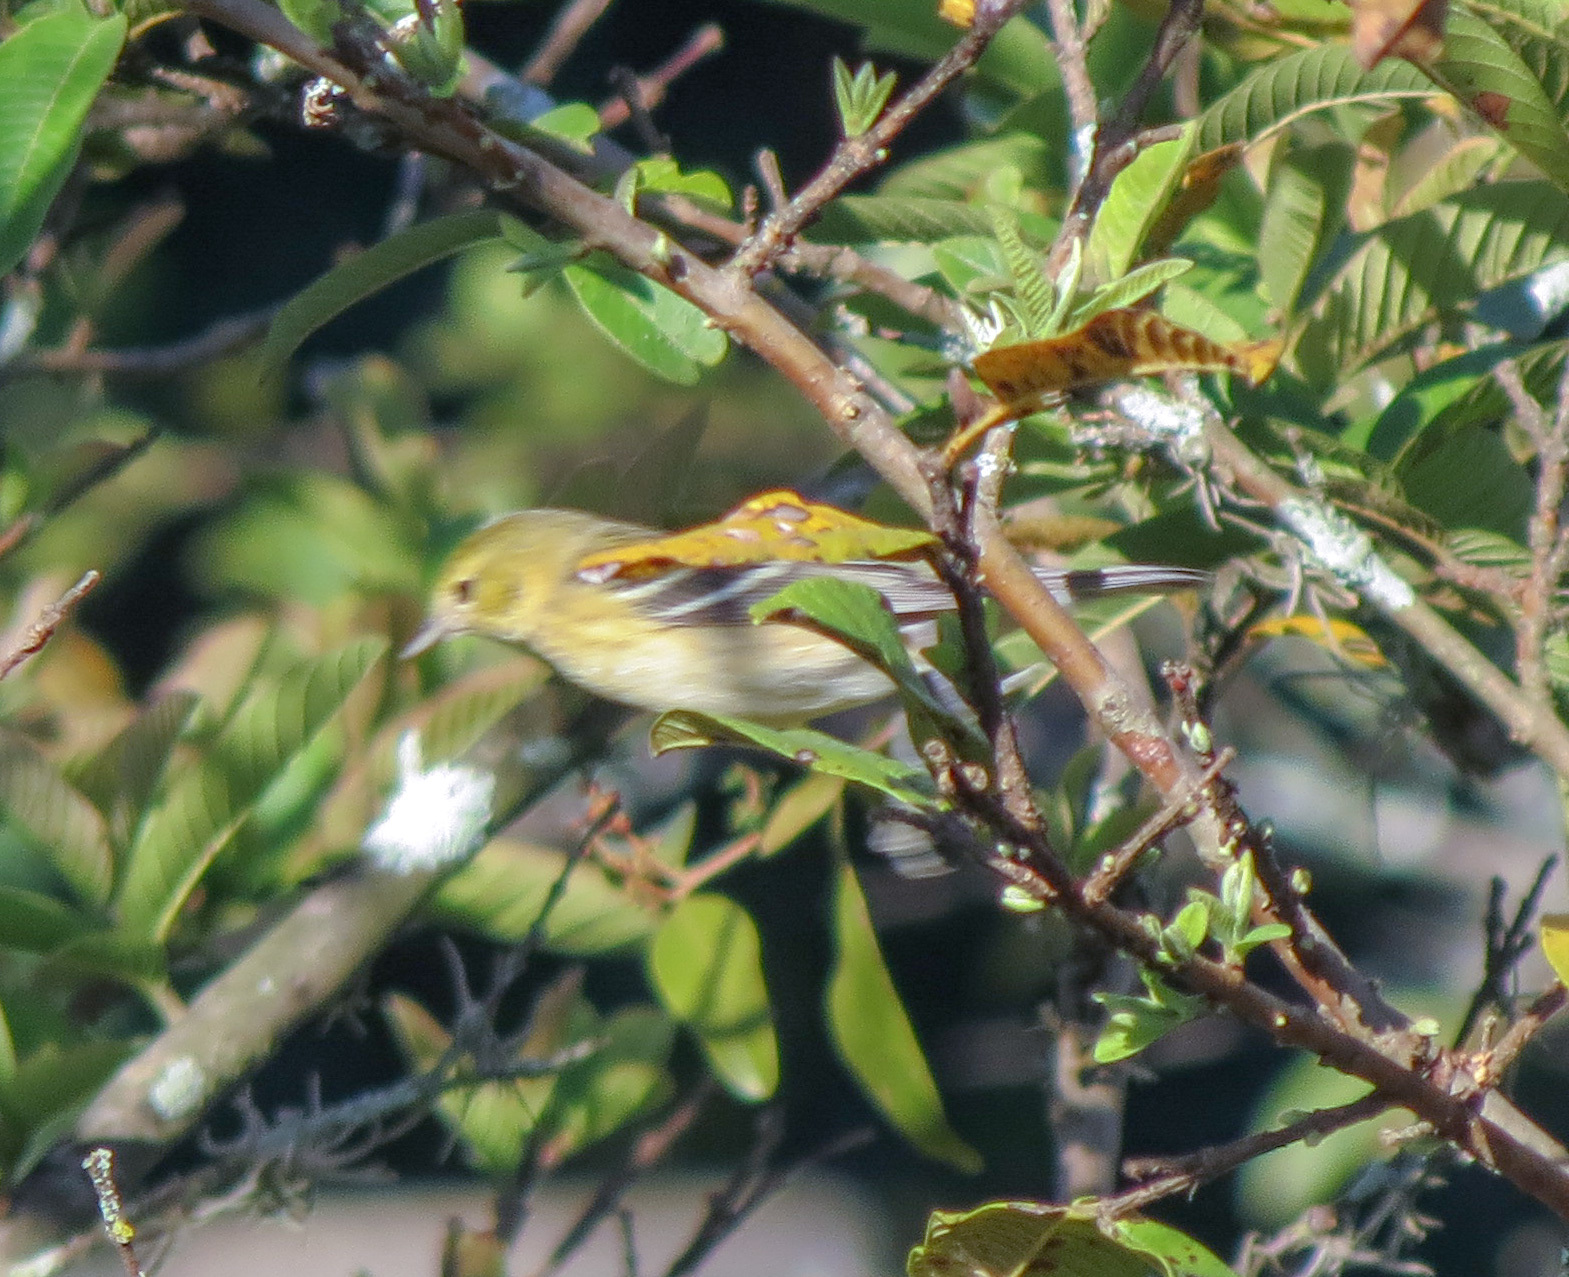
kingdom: Animalia
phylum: Chordata
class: Aves
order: Passeriformes
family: Parulidae
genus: Setophaga
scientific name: Setophaga castanea
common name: Bay-breasted warbler
